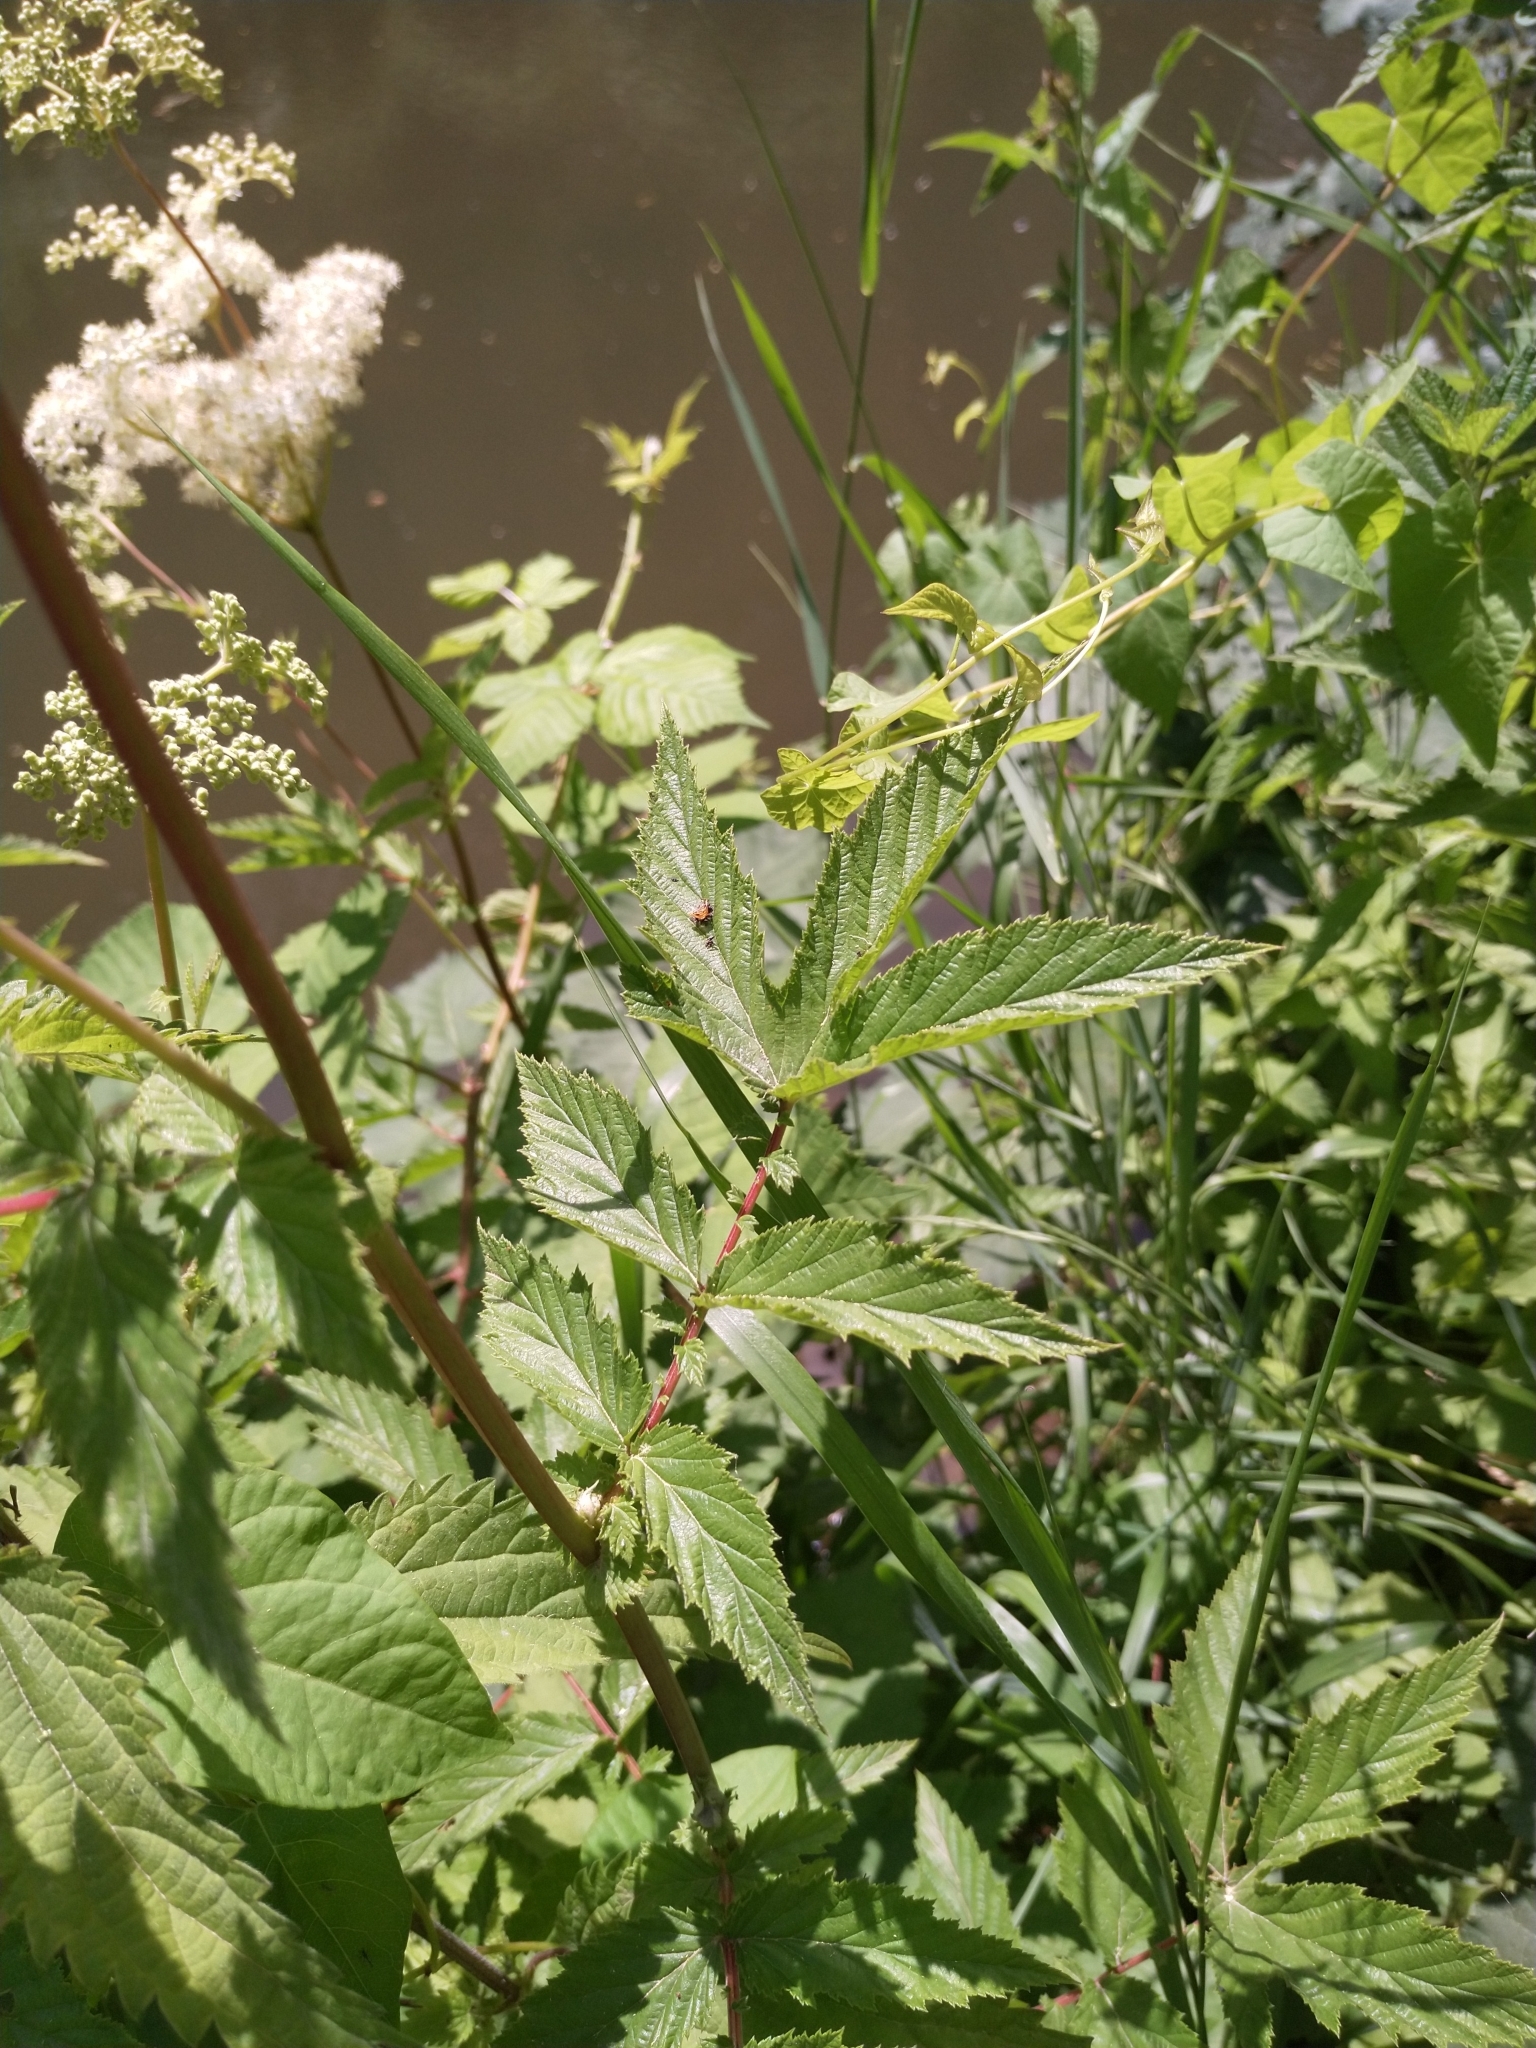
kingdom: Plantae
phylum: Tracheophyta
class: Magnoliopsida
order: Rosales
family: Rosaceae
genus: Filipendula
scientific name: Filipendula ulmaria
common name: Meadowsweet
